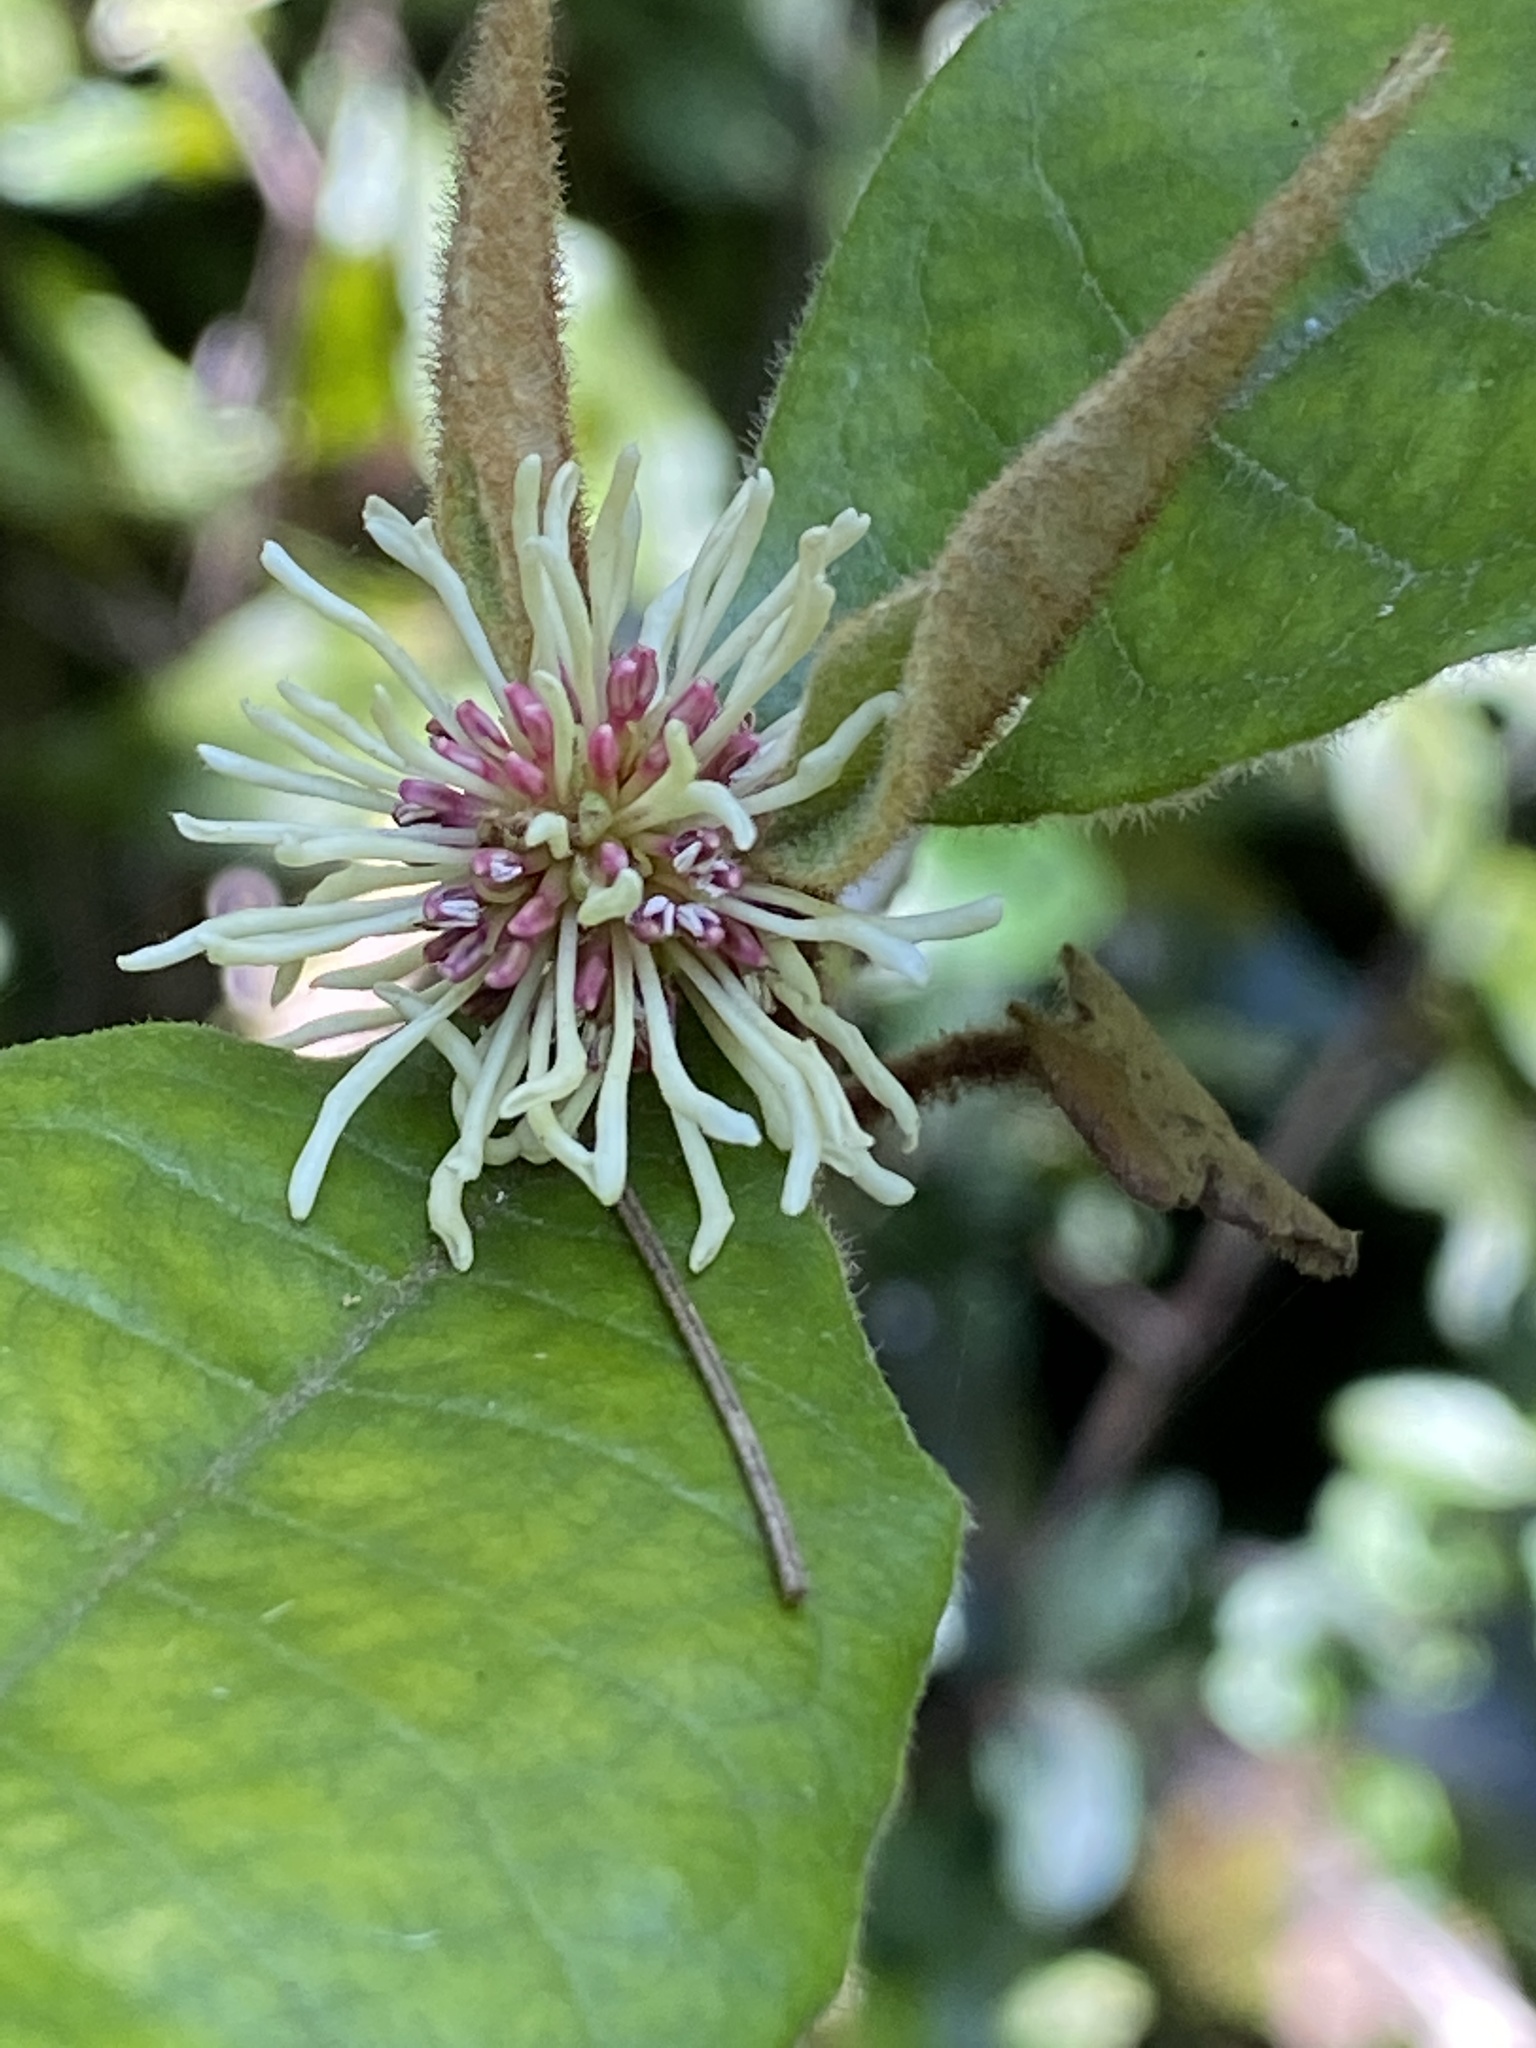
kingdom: Plantae
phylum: Tracheophyta
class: Magnoliopsida
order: Saxifragales
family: Hamamelidaceae
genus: Trichocladus
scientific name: Trichocladus crinitus
